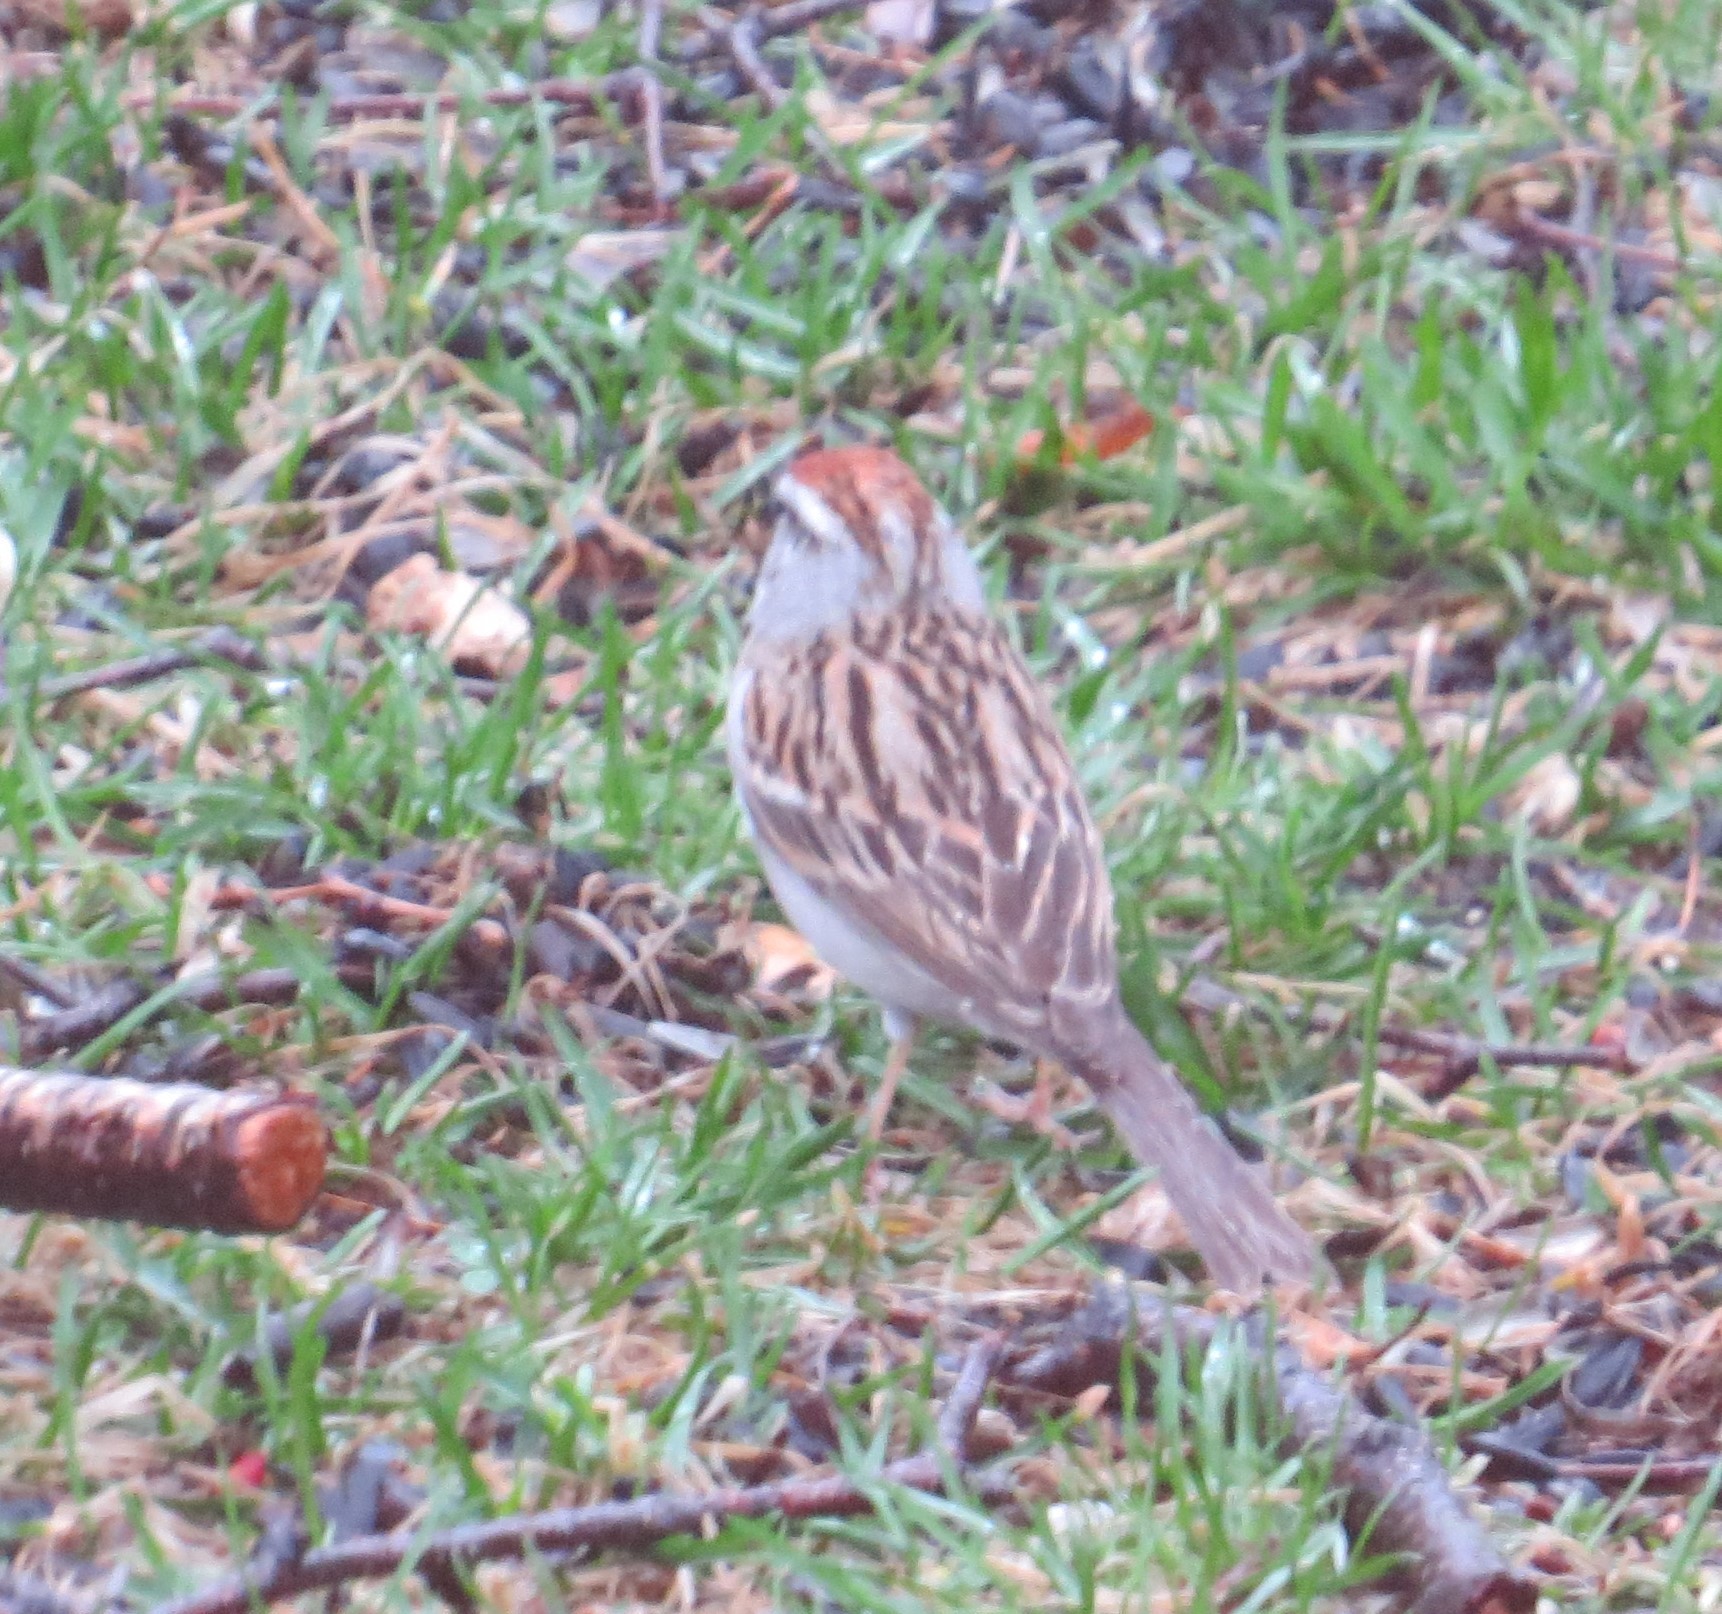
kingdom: Animalia
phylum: Chordata
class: Aves
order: Passeriformes
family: Passerellidae
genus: Spizella
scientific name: Spizella passerina
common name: Chipping sparrow
